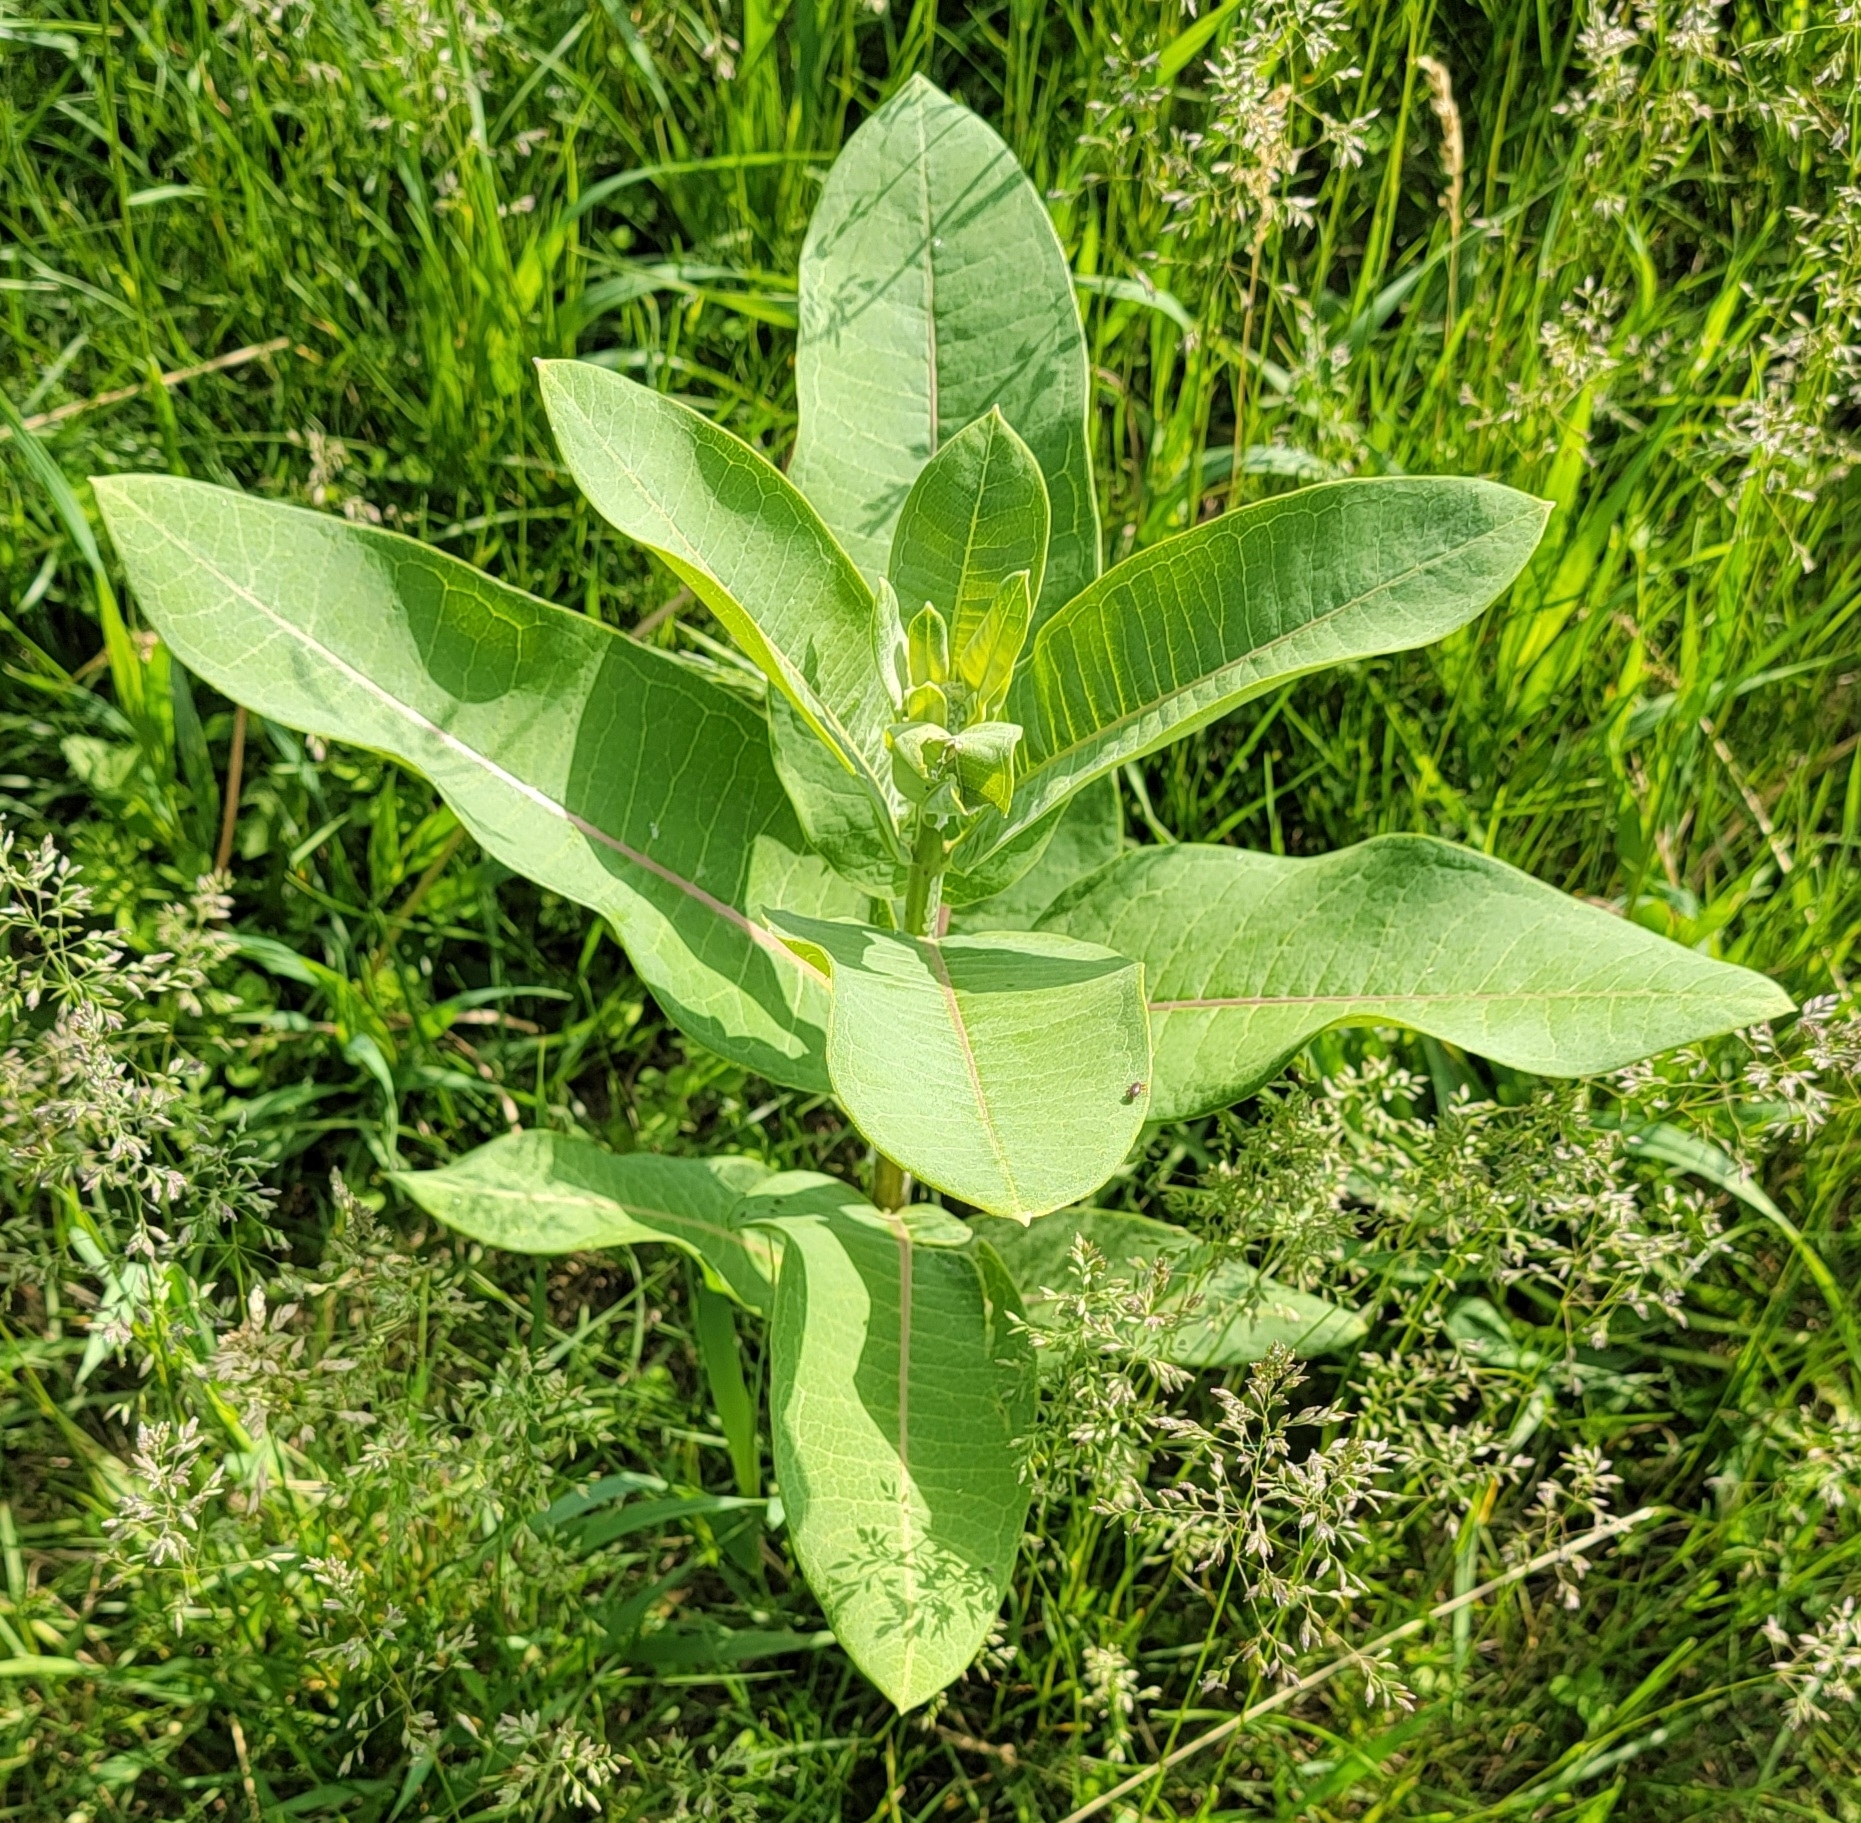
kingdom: Plantae
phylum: Tracheophyta
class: Magnoliopsida
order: Gentianales
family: Apocynaceae
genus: Asclepias
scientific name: Asclepias syriaca
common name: Common milkweed
